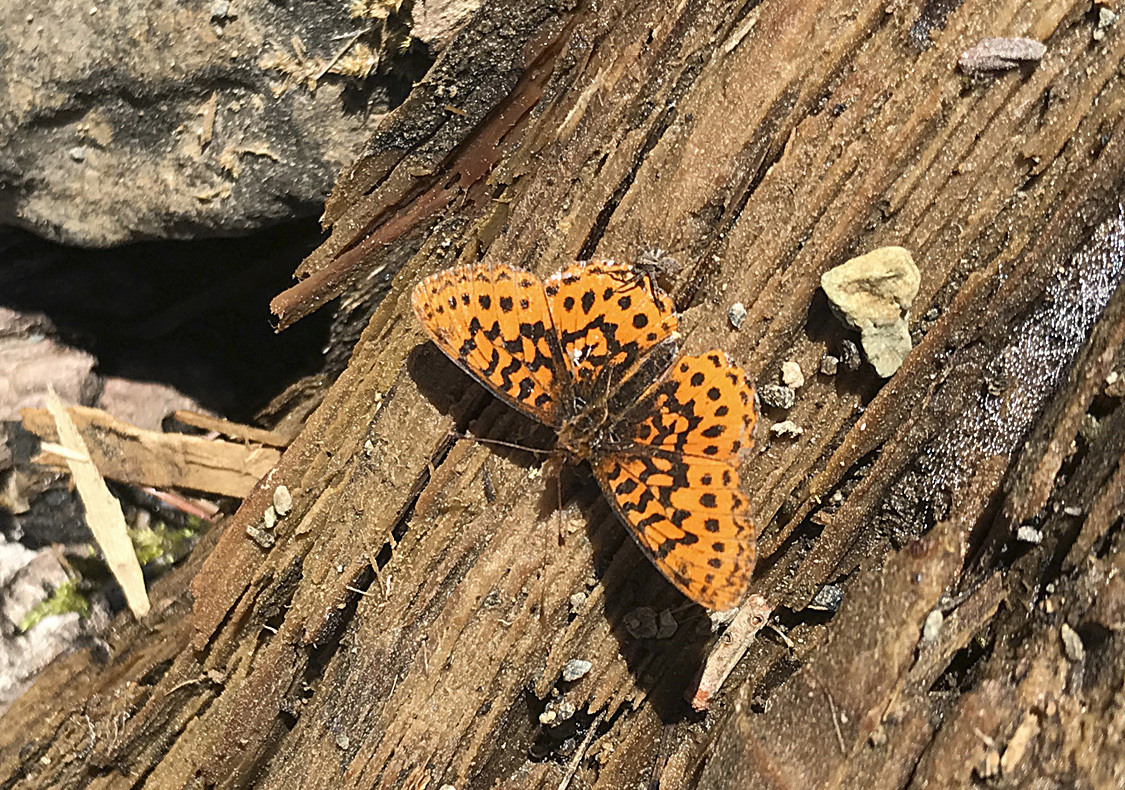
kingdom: Animalia
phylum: Arthropoda
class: Insecta
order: Lepidoptera
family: Nymphalidae
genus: Boloria
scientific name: Boloria epithore
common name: Pacific fritillary
